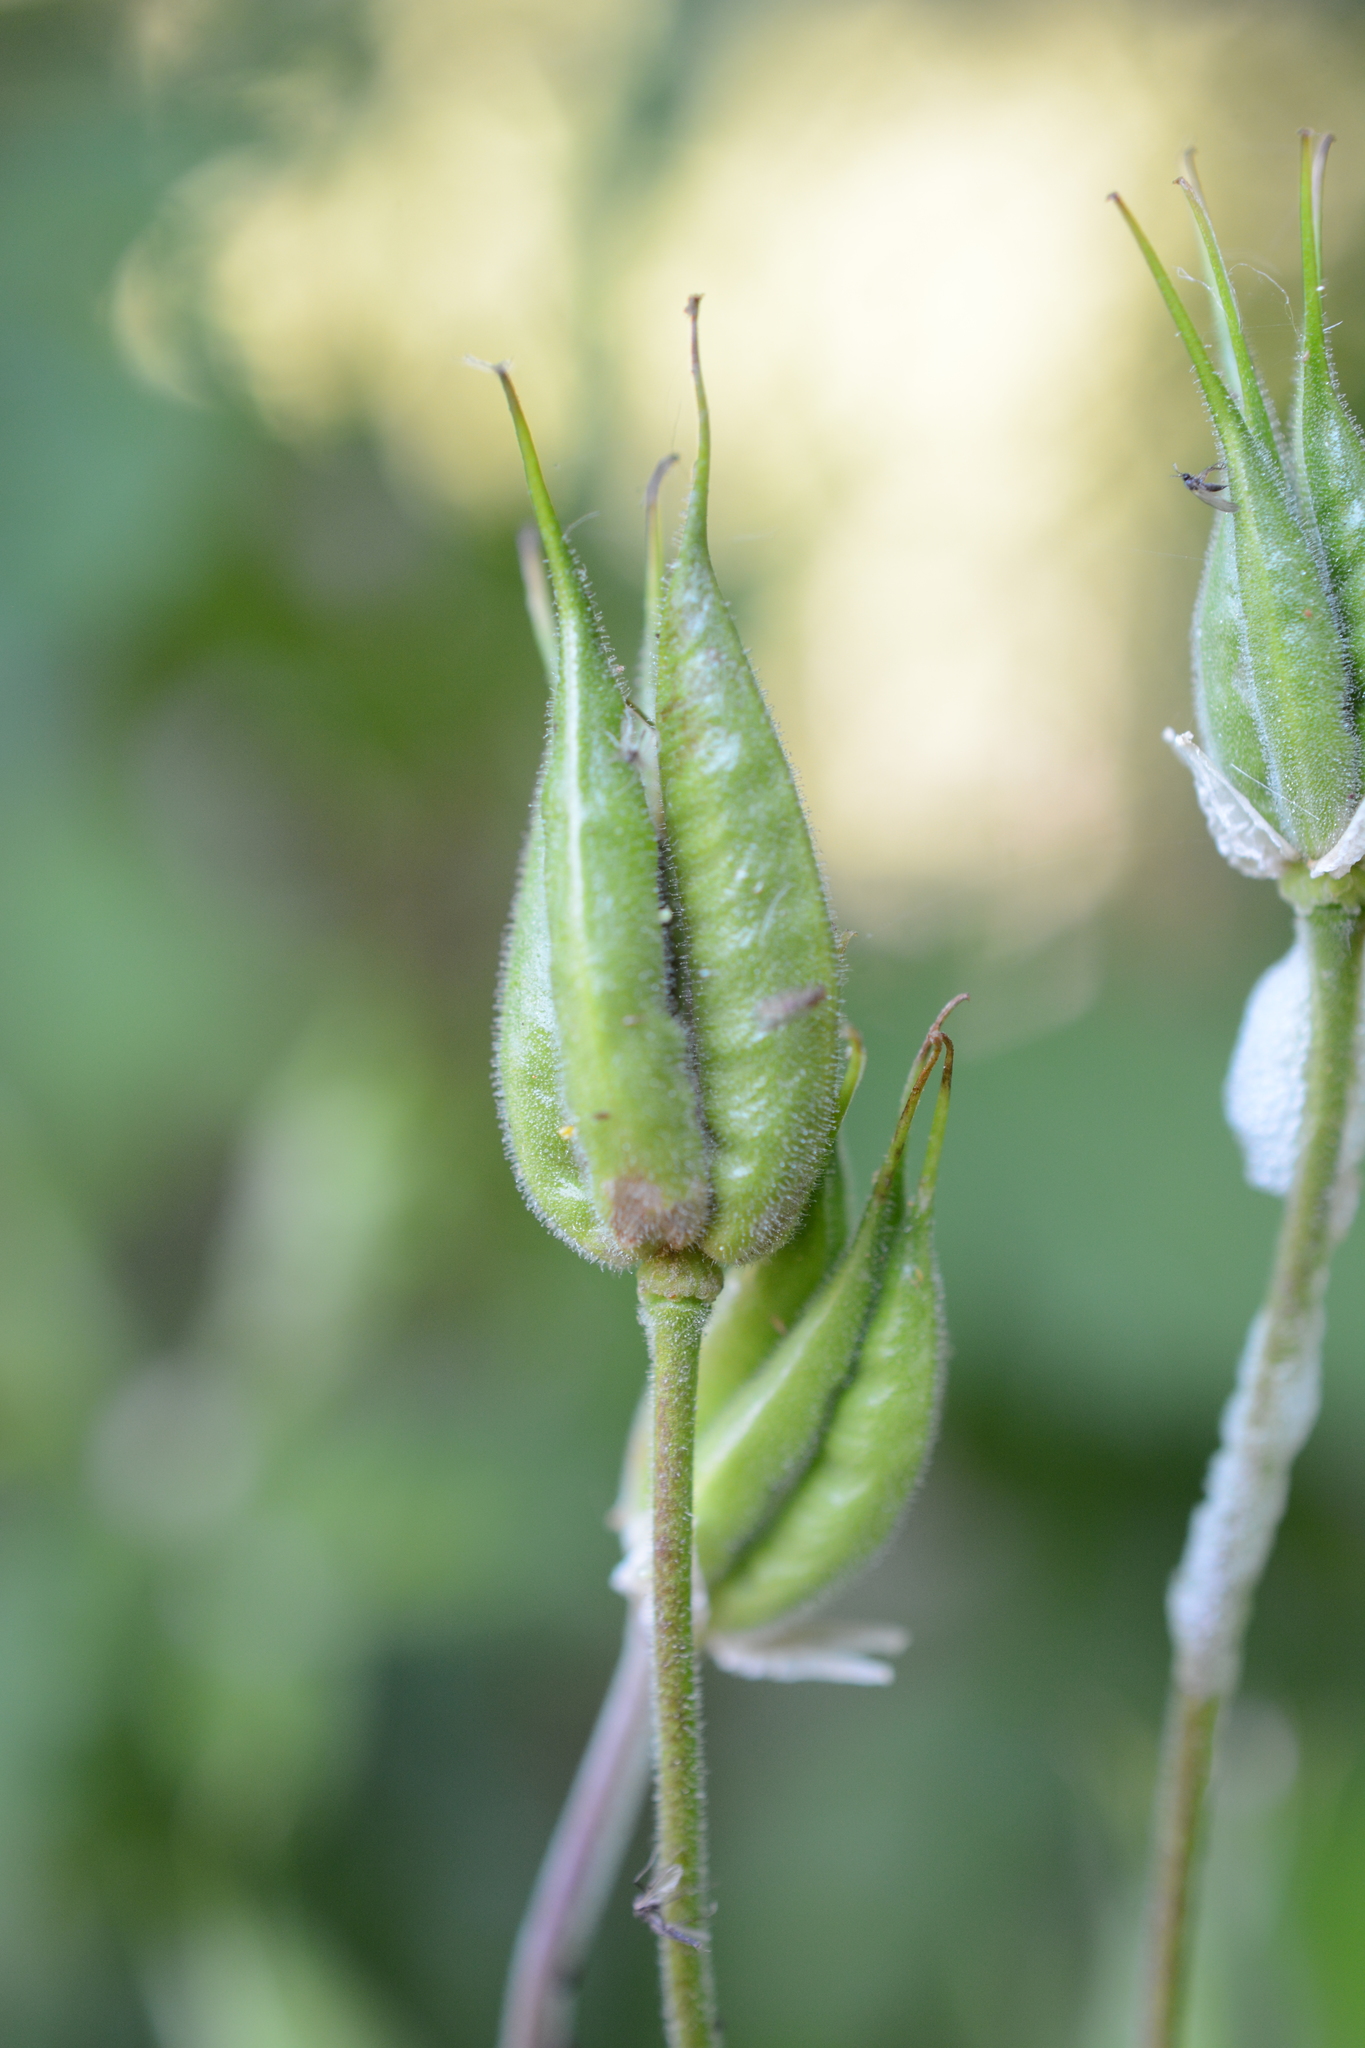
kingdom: Plantae
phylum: Tracheophyta
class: Magnoliopsida
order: Ranunculales
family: Ranunculaceae
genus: Aquilegia
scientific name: Aquilegia vulgaris
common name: Columbine
